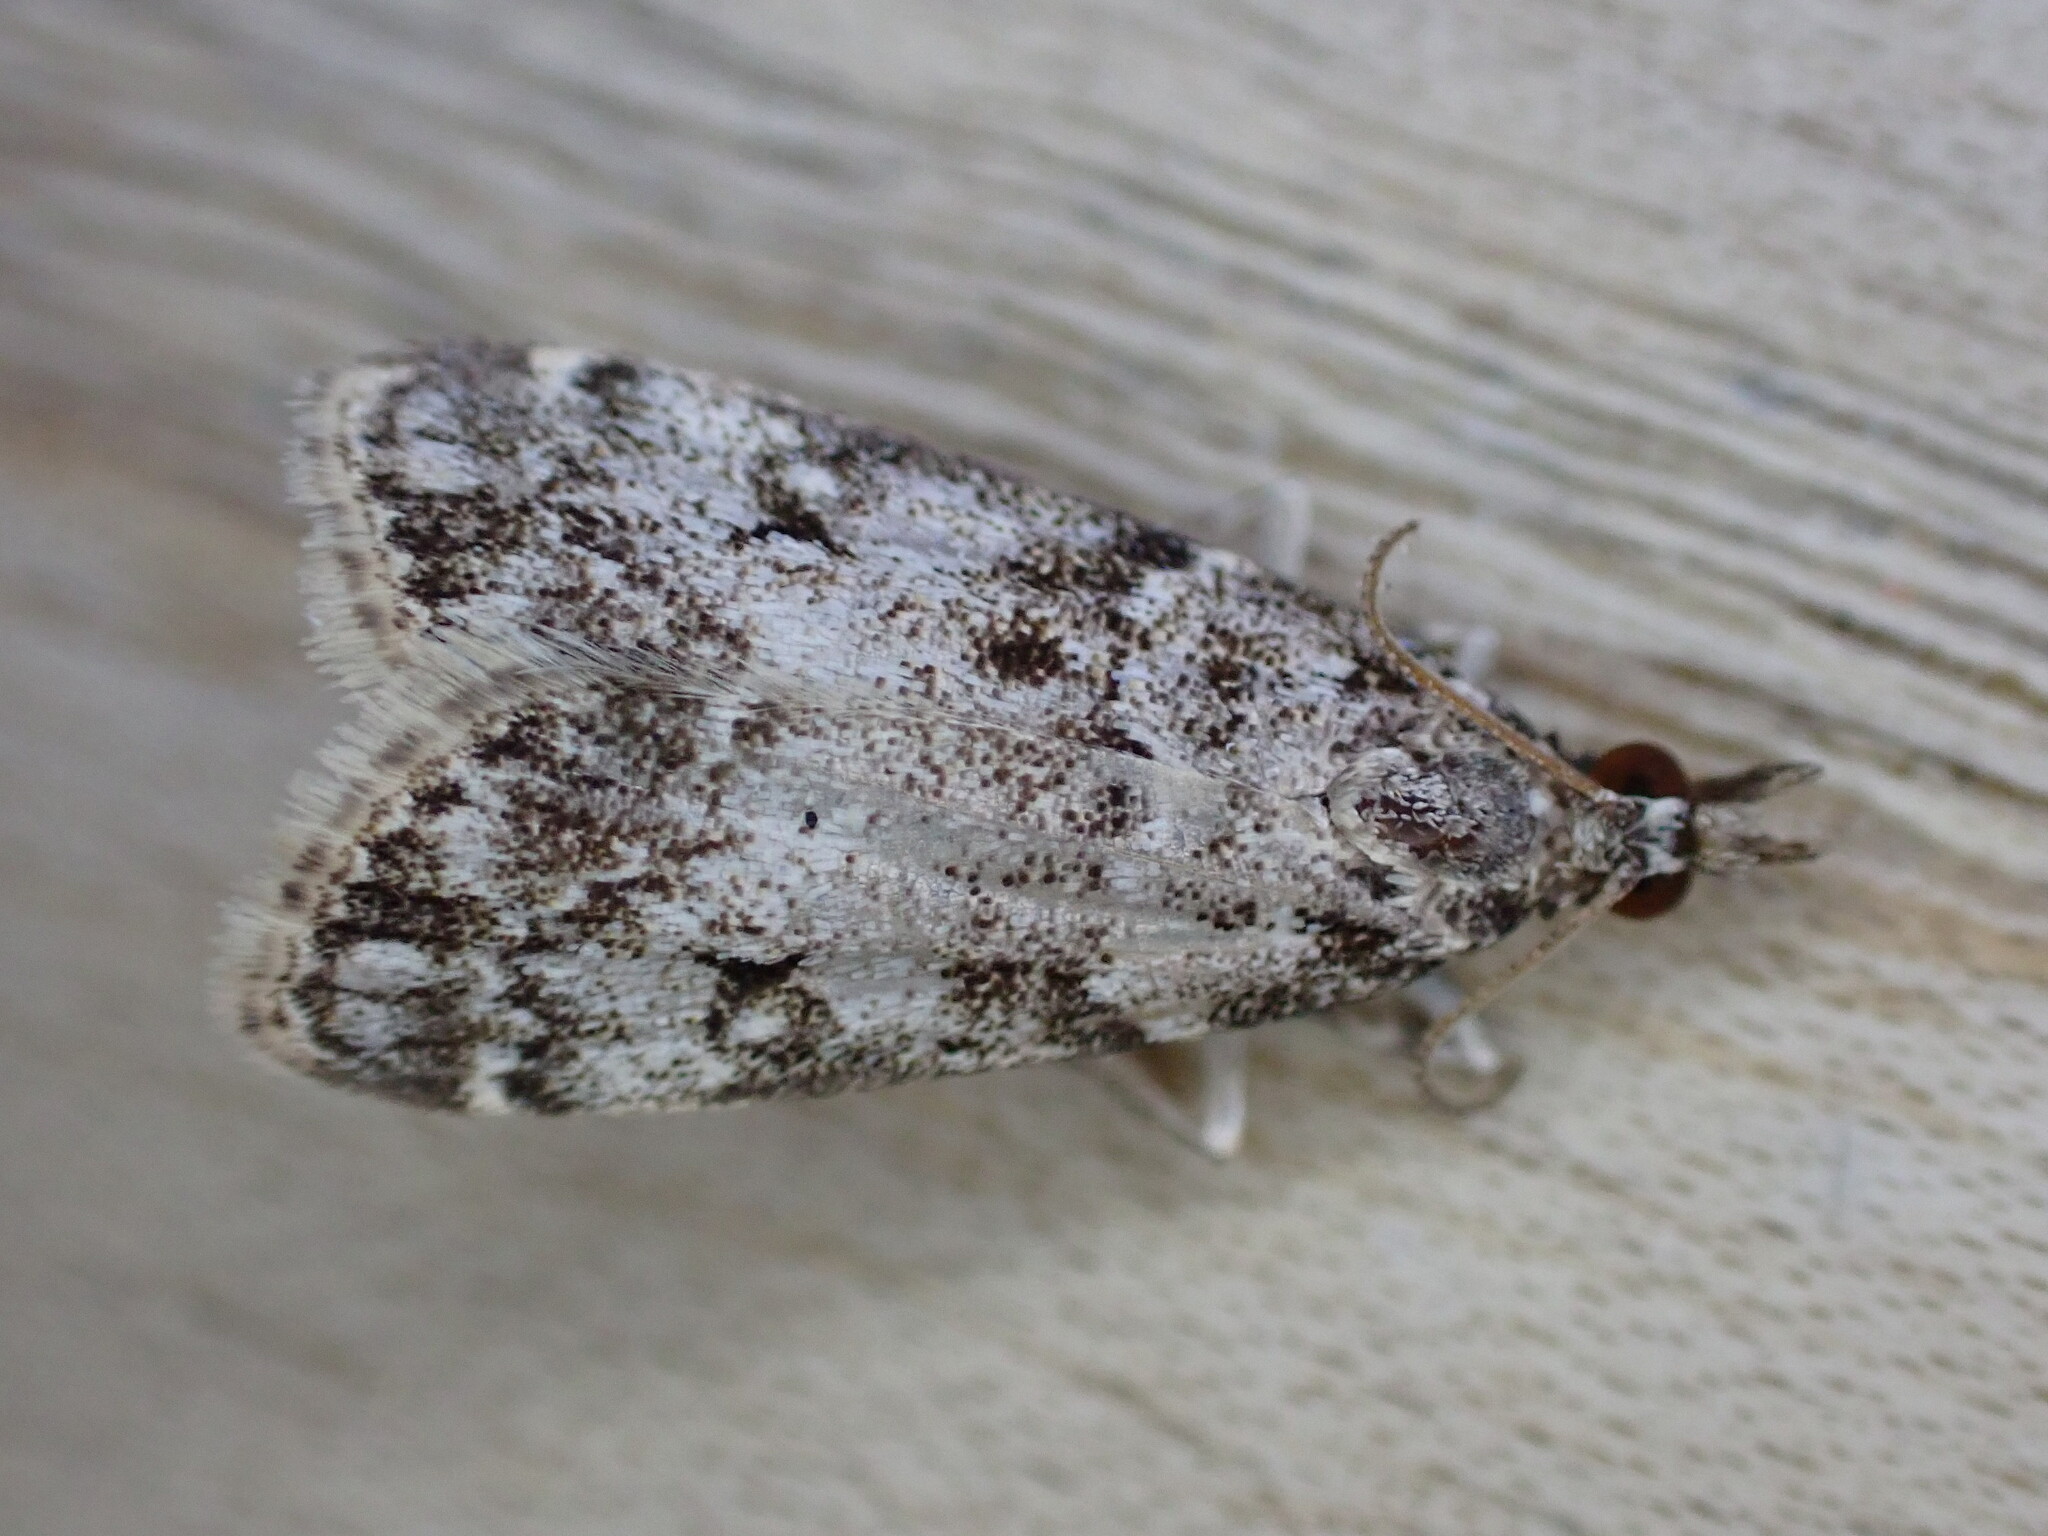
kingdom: Animalia
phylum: Arthropoda
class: Insecta
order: Lepidoptera
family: Crambidae
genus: Eudonia
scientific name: Eudonia lacustrata
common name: Little grey
